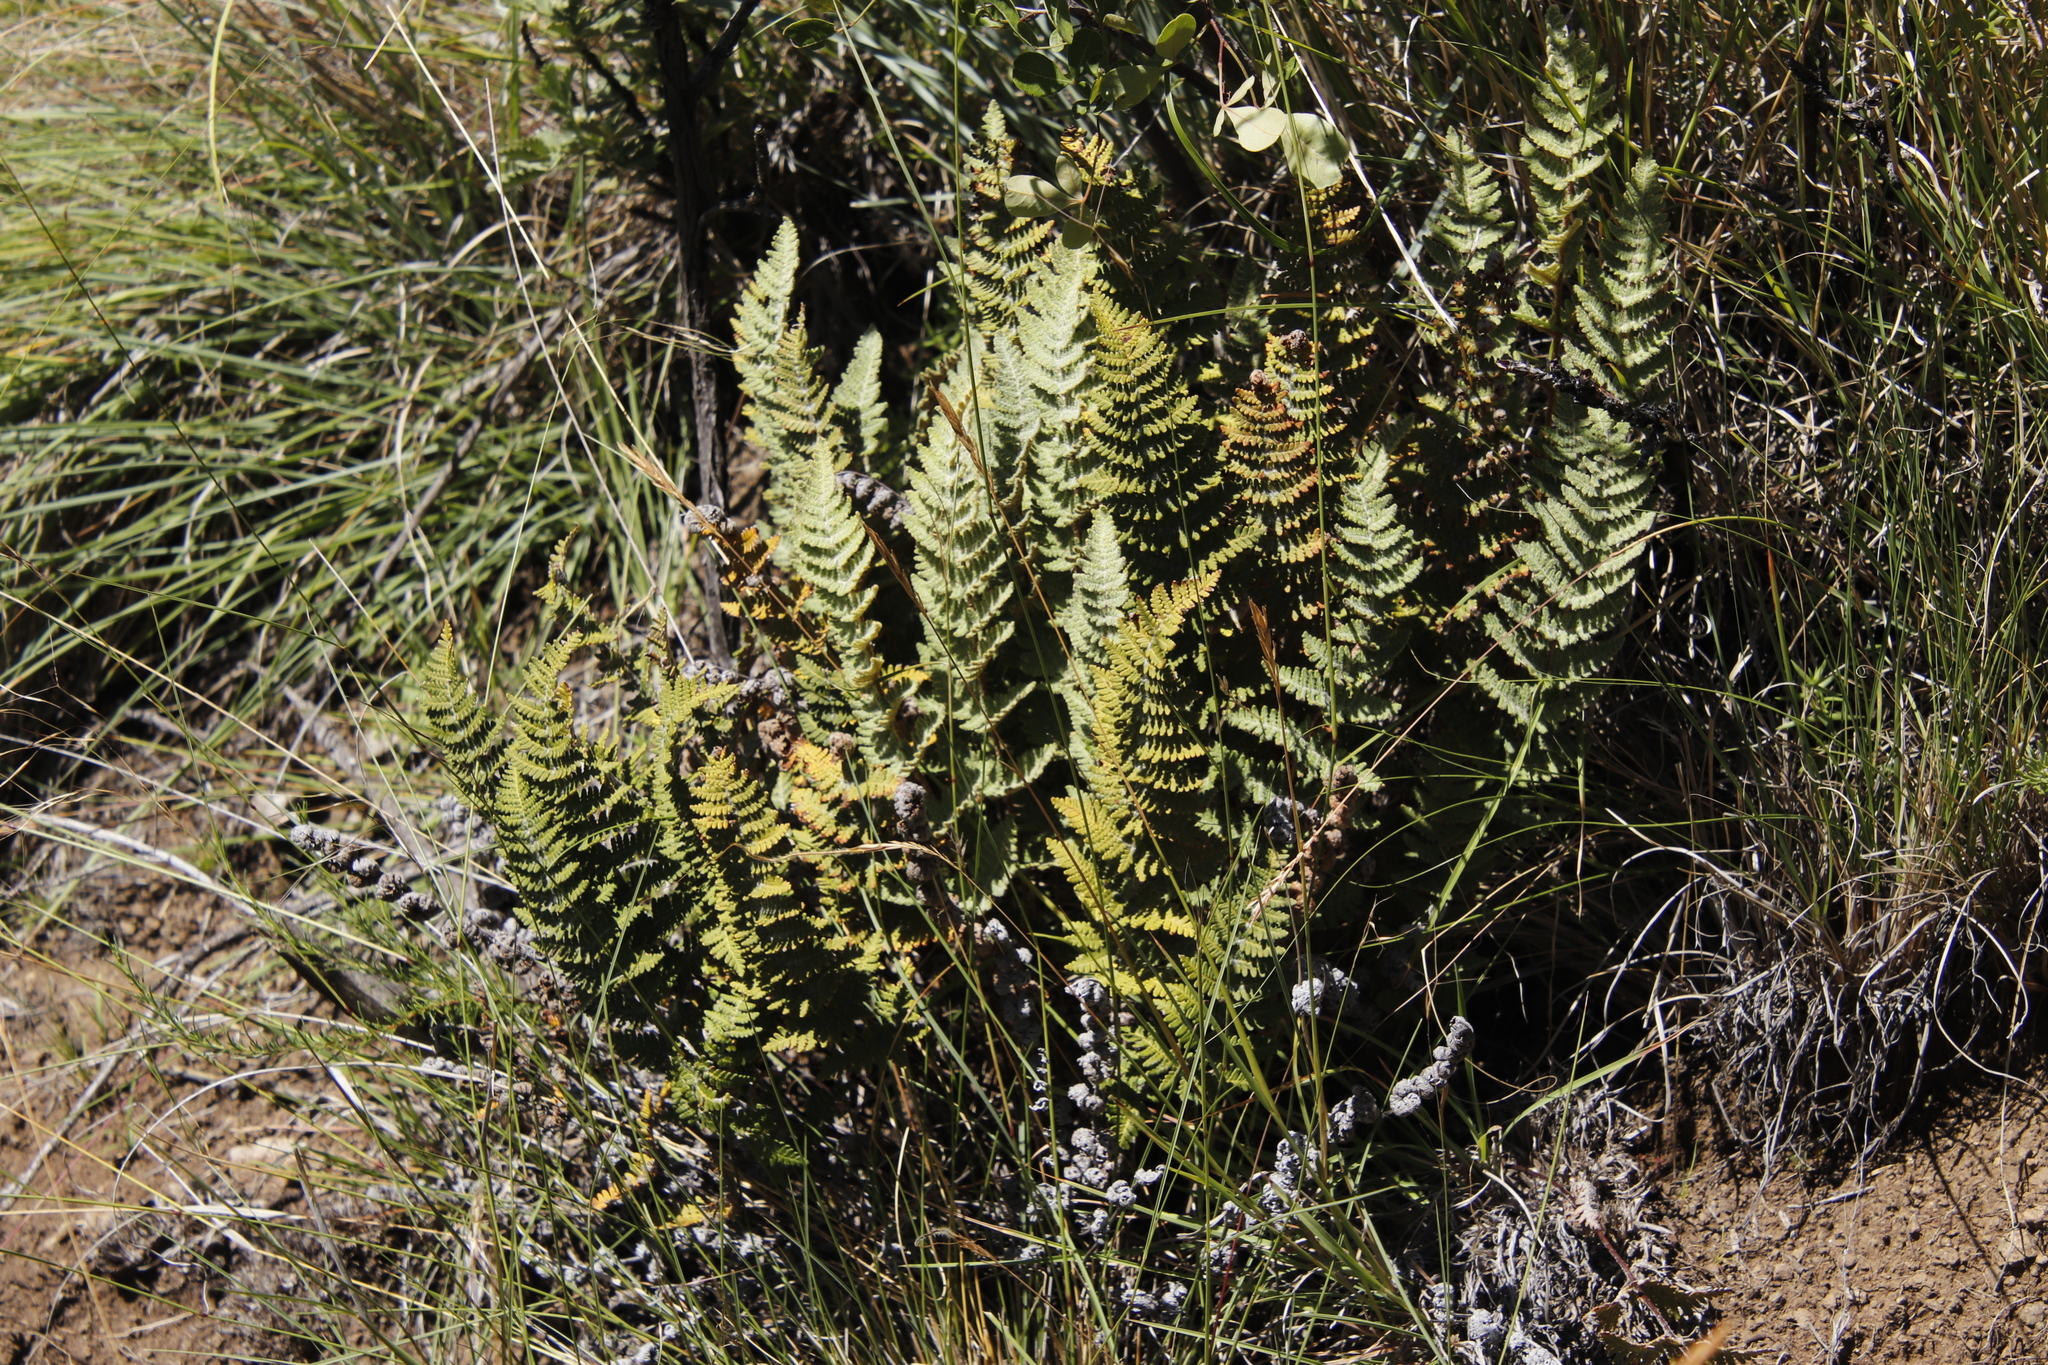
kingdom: Plantae
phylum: Tracheophyta
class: Polypodiopsida
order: Polypodiales
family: Pteridaceae
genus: Cheilanthes
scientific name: Cheilanthes eckloniana
